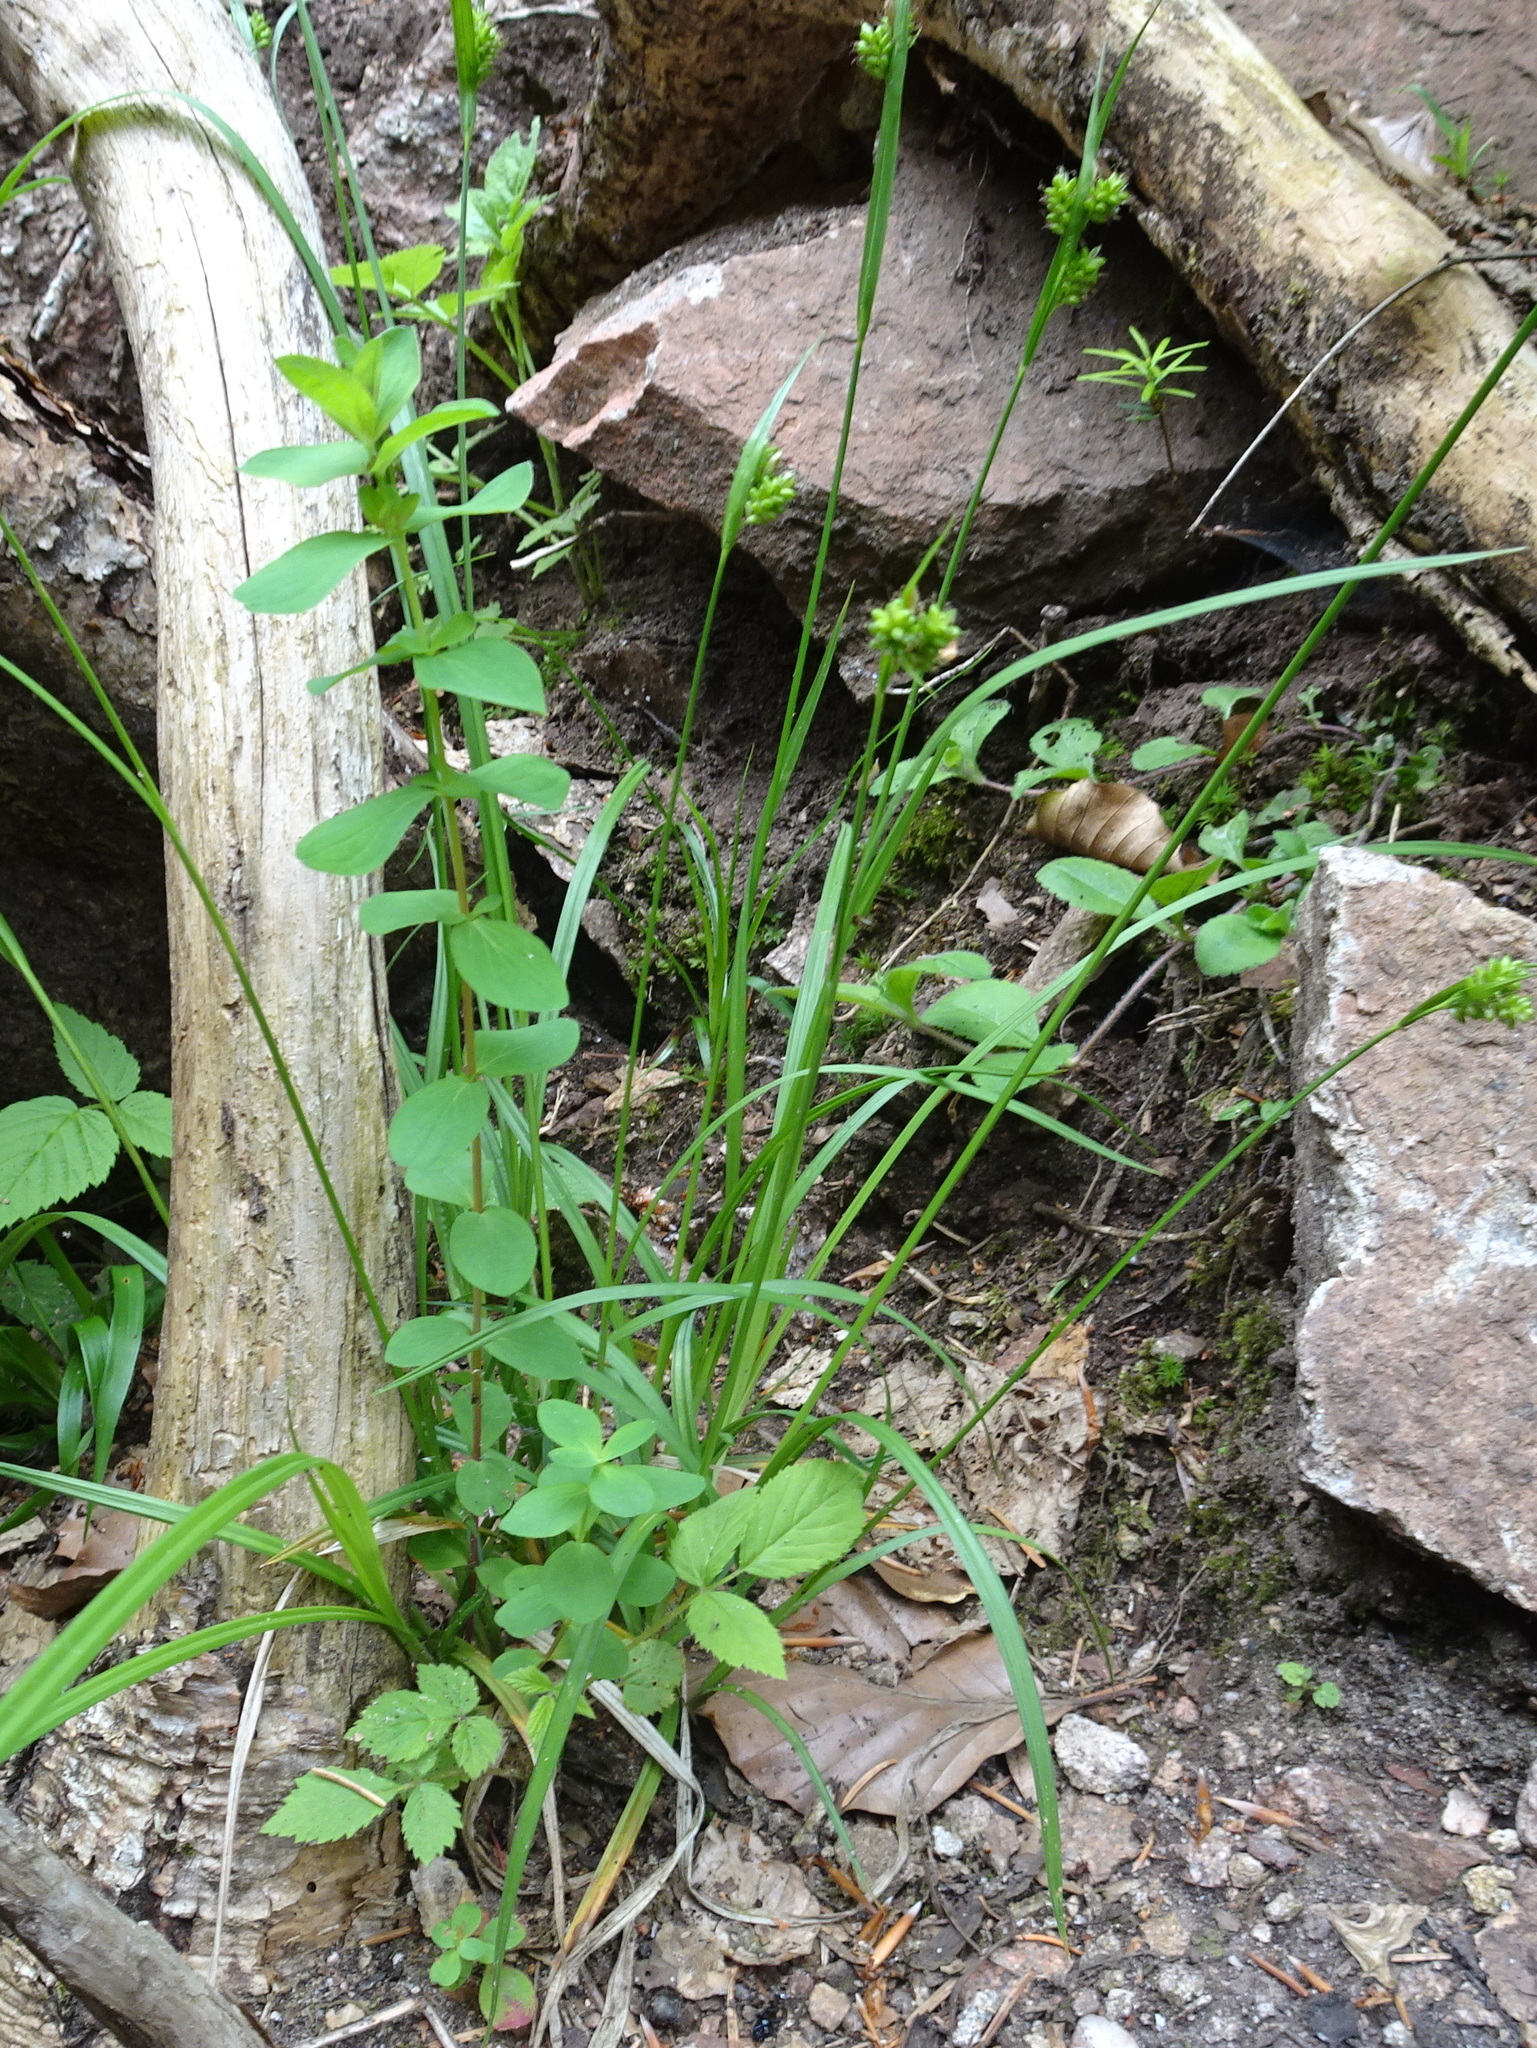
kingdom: Plantae
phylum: Tracheophyta
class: Liliopsida
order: Poales
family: Cyperaceae
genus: Carex
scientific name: Carex pallescens
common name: Pale sedge
